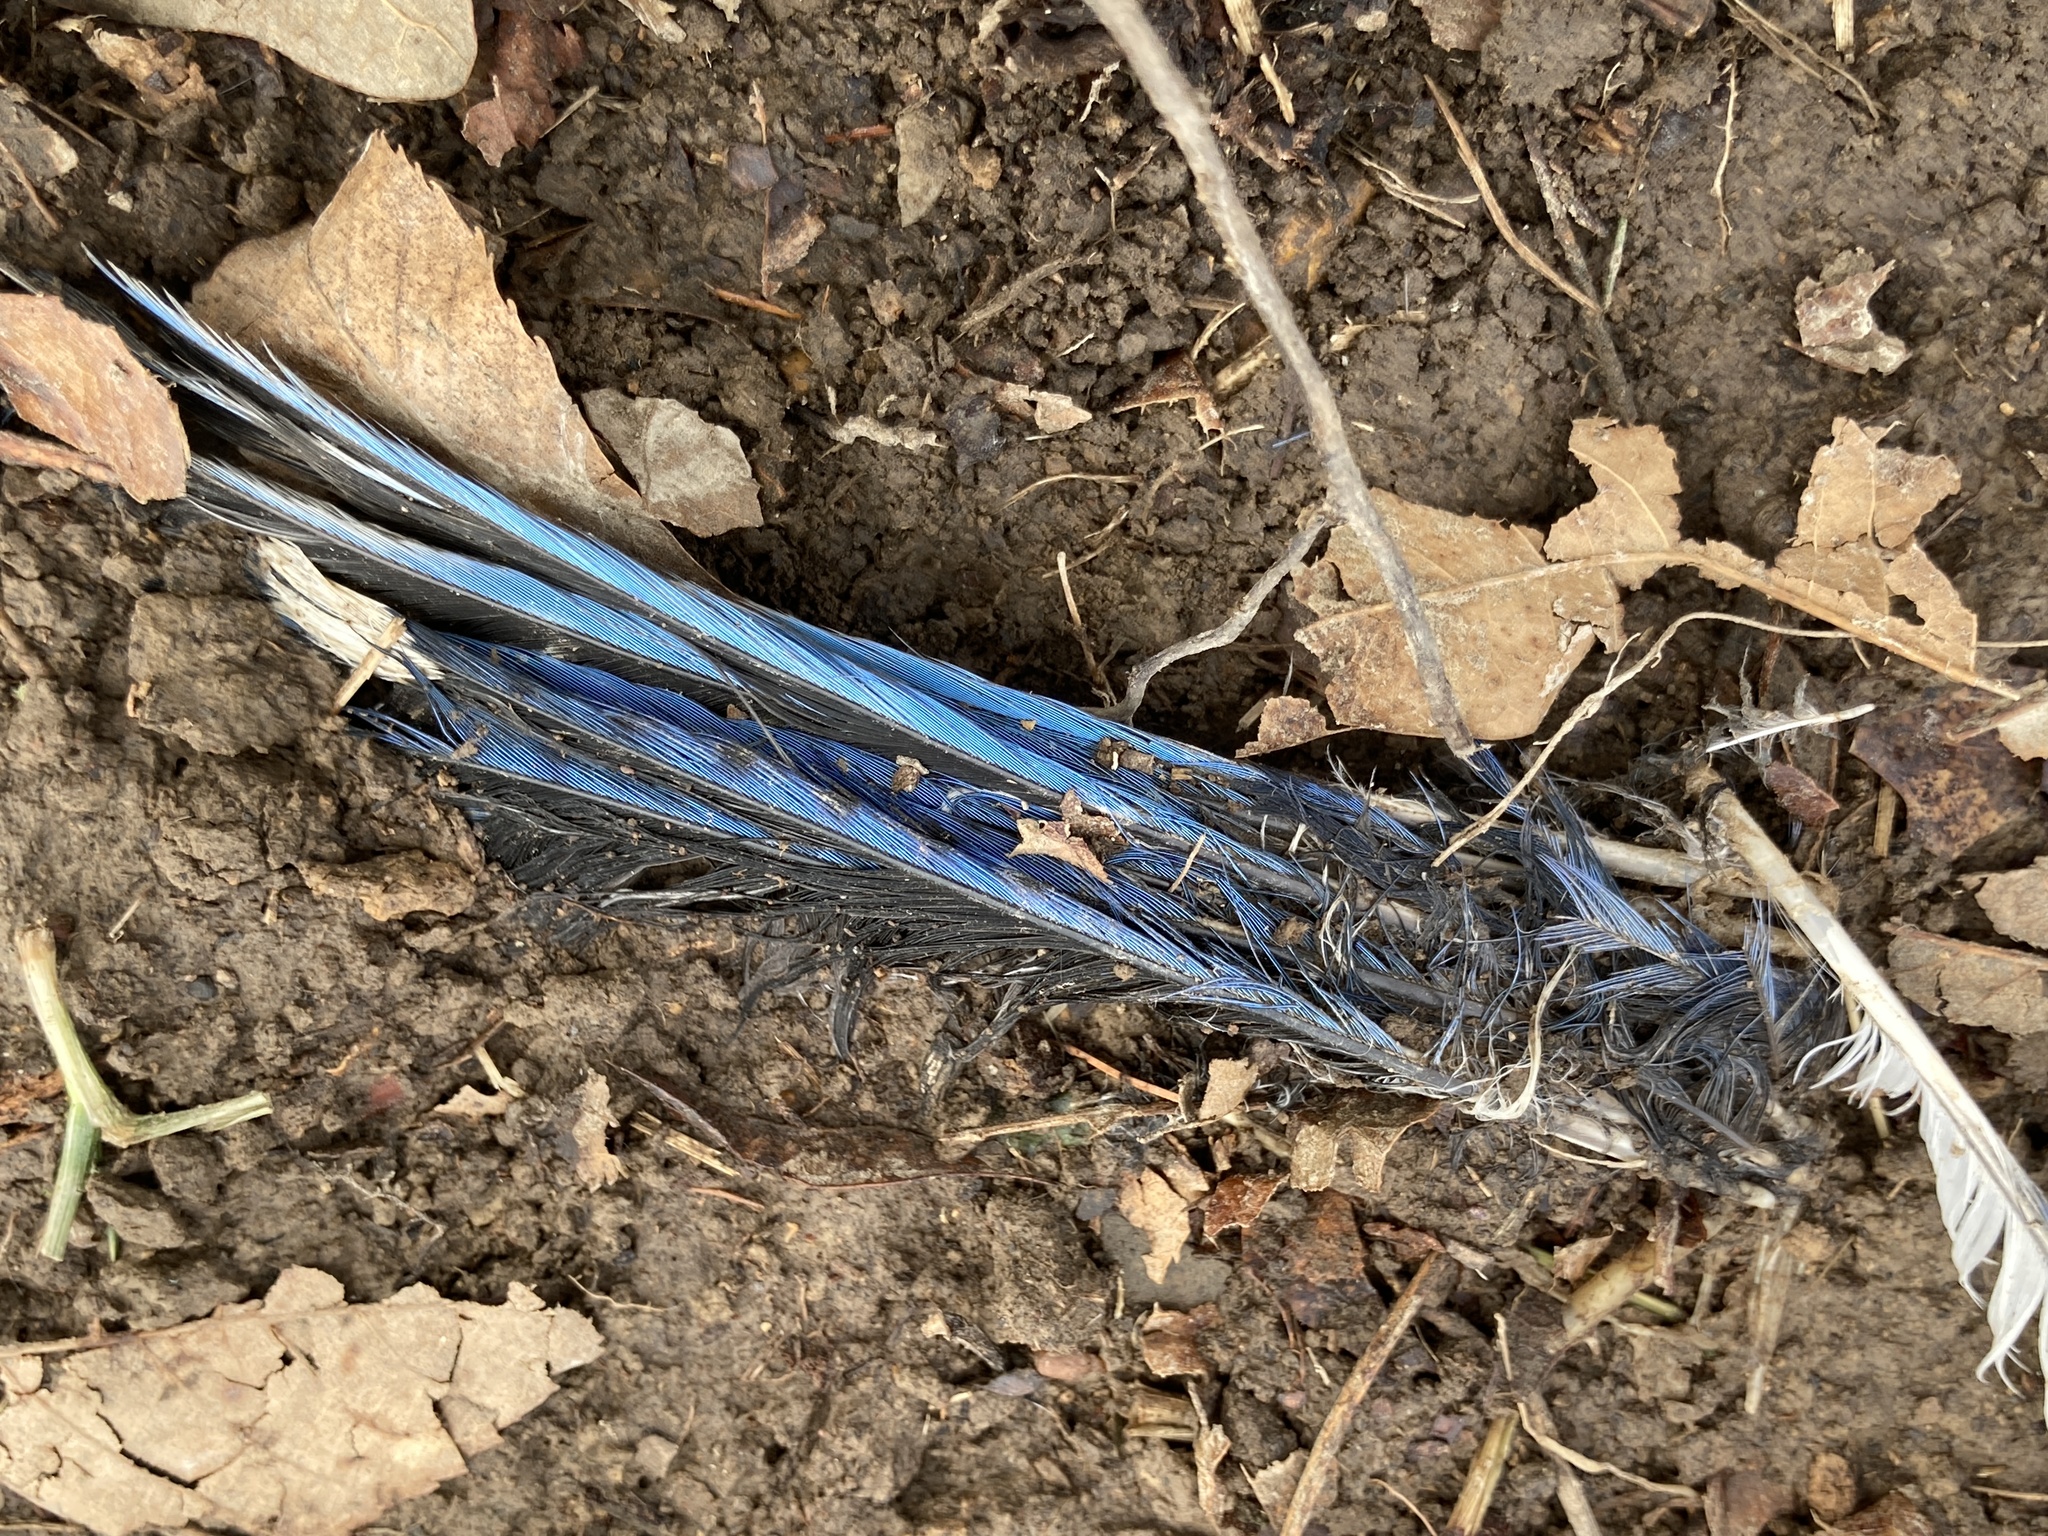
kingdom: Animalia
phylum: Chordata
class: Aves
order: Passeriformes
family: Corvidae
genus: Cyanocitta
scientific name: Cyanocitta cristata
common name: Blue jay
